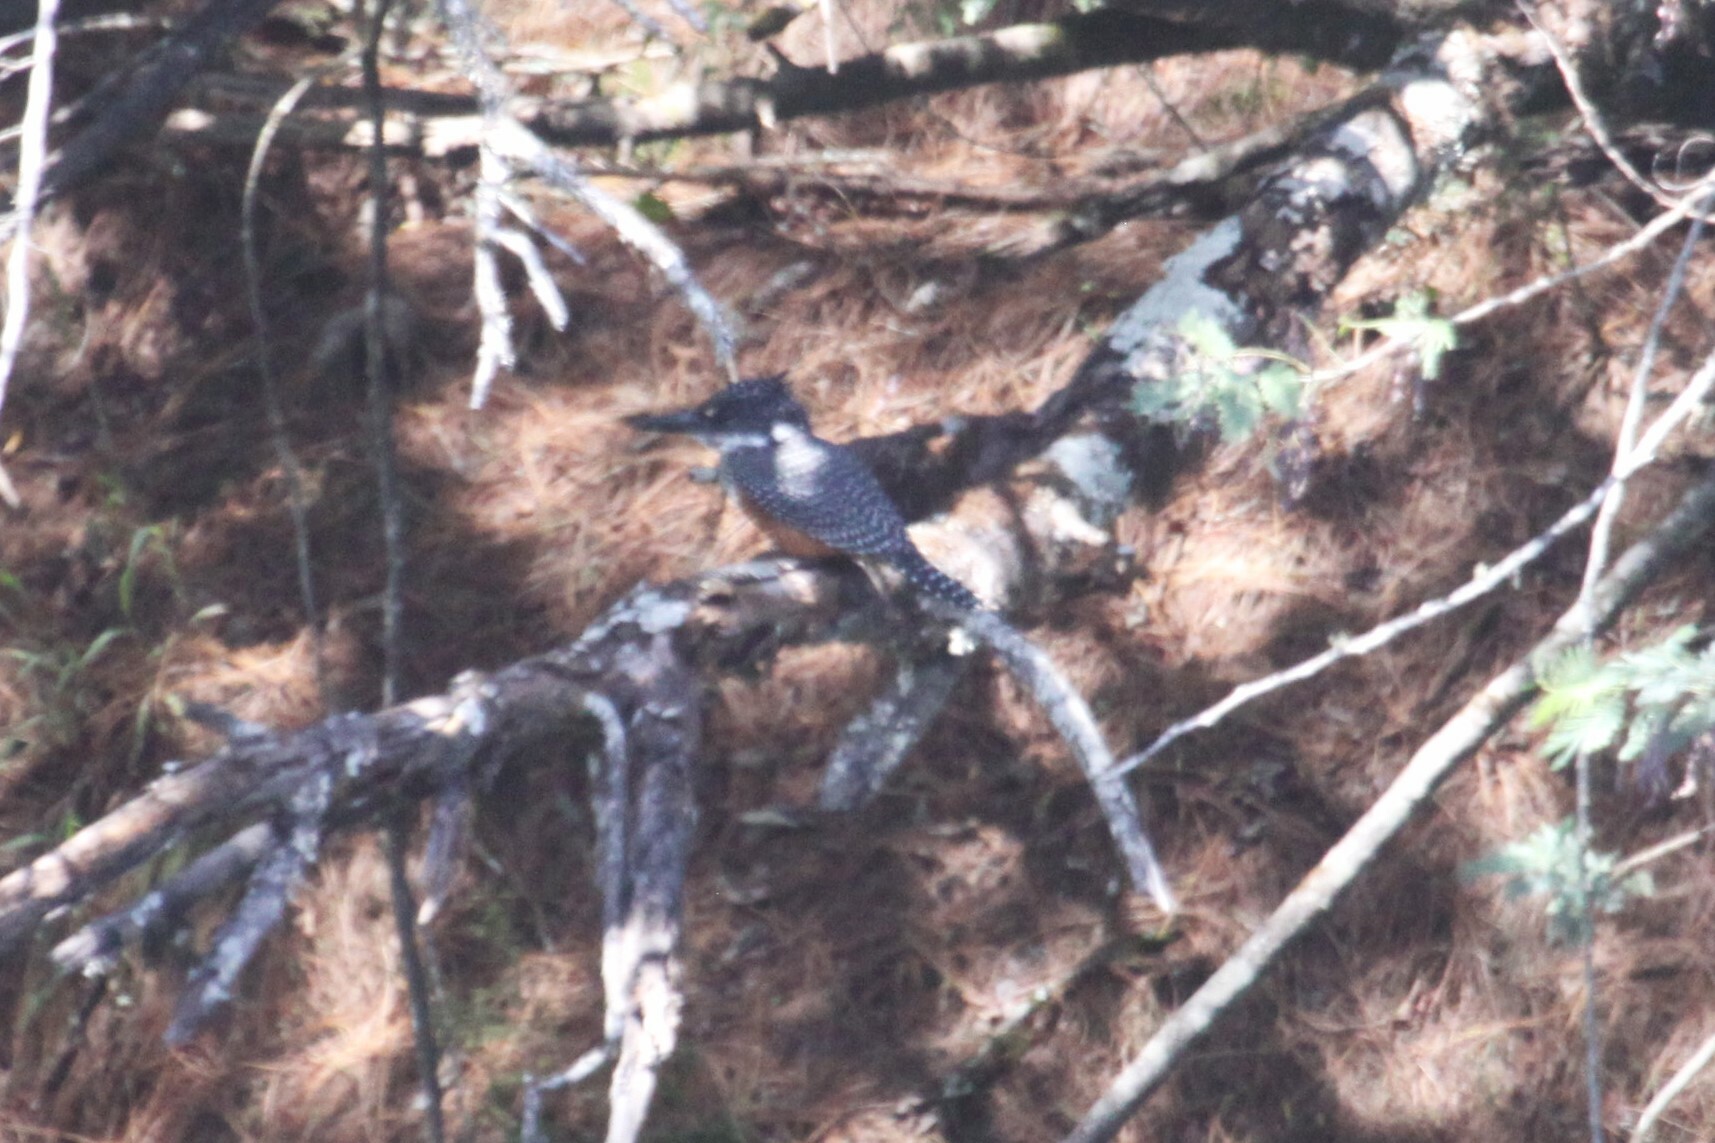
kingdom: Animalia
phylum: Chordata
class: Aves
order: Coraciiformes
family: Alcedinidae
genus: Megaceryle
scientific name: Megaceryle maxima
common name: Giant kingfisher
